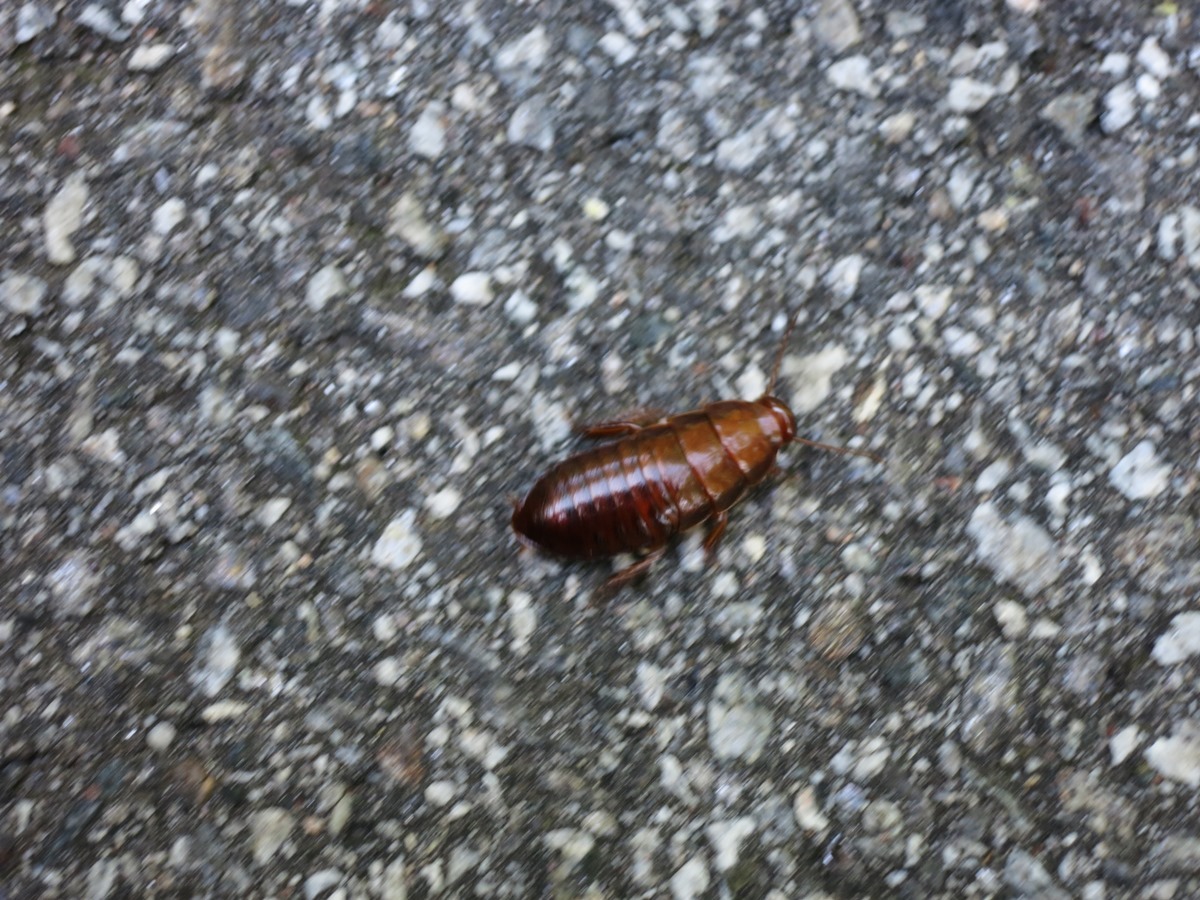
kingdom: Animalia
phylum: Arthropoda
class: Insecta
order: Blattodea
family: Cryptocercidae
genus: Cryptocercus
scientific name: Cryptocercus wrighti
